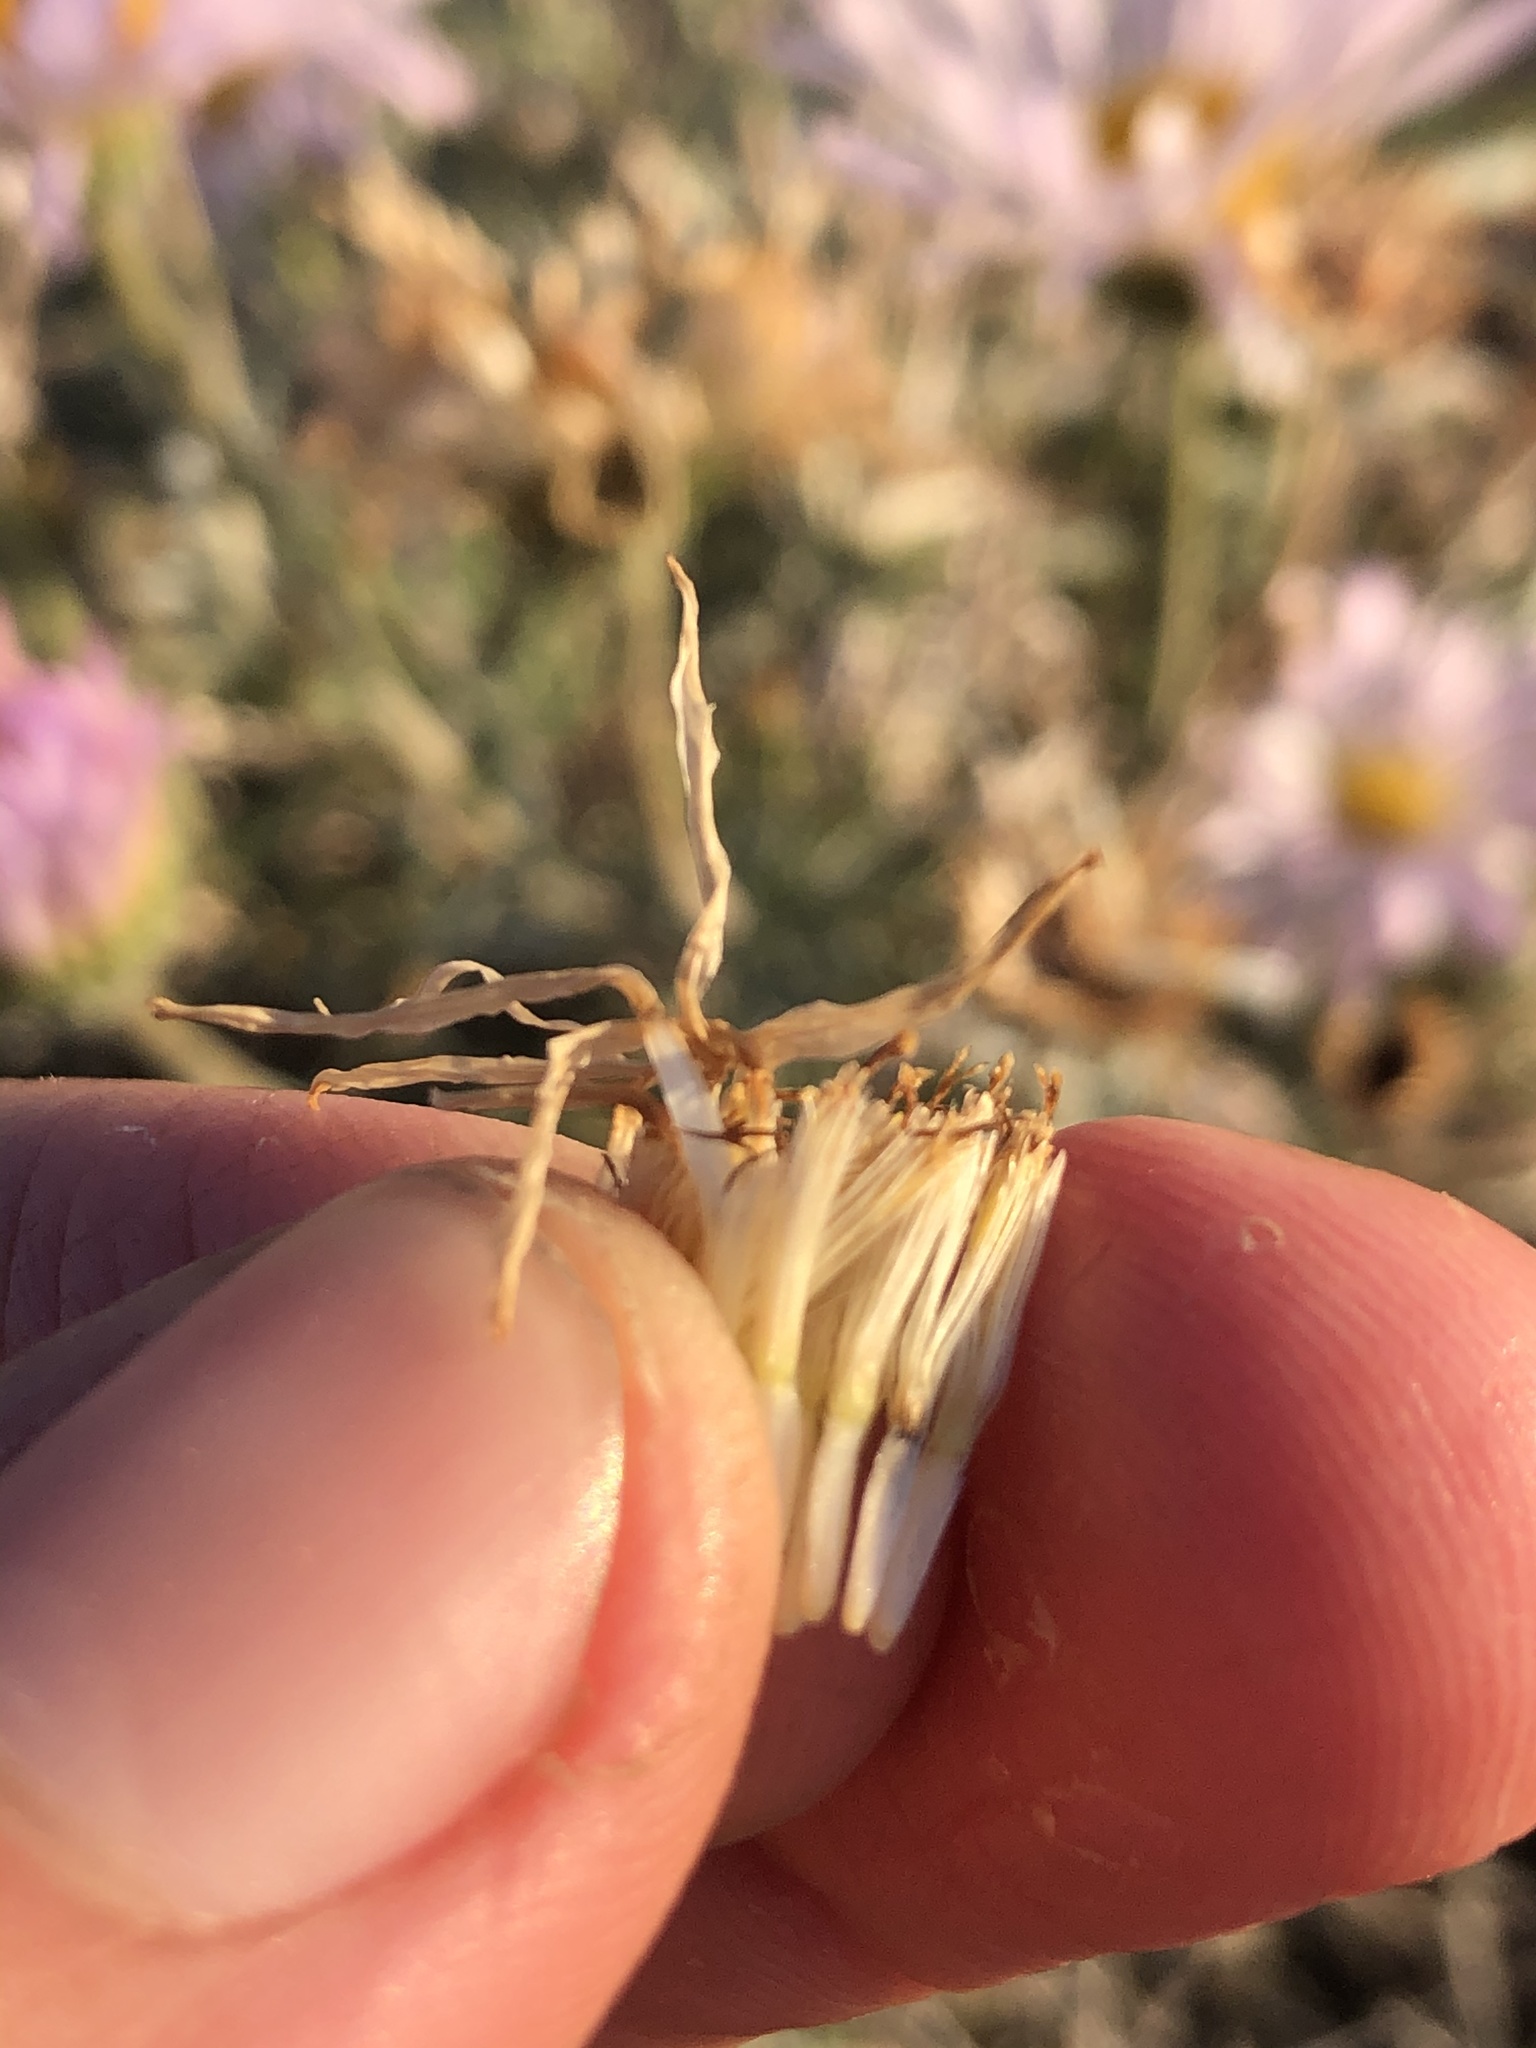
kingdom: Plantae
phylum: Tracheophyta
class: Magnoliopsida
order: Asterales
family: Asteraceae
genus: Xylorhiza
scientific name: Xylorhiza tortifolia
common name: Hurt-leaf woody-aster
